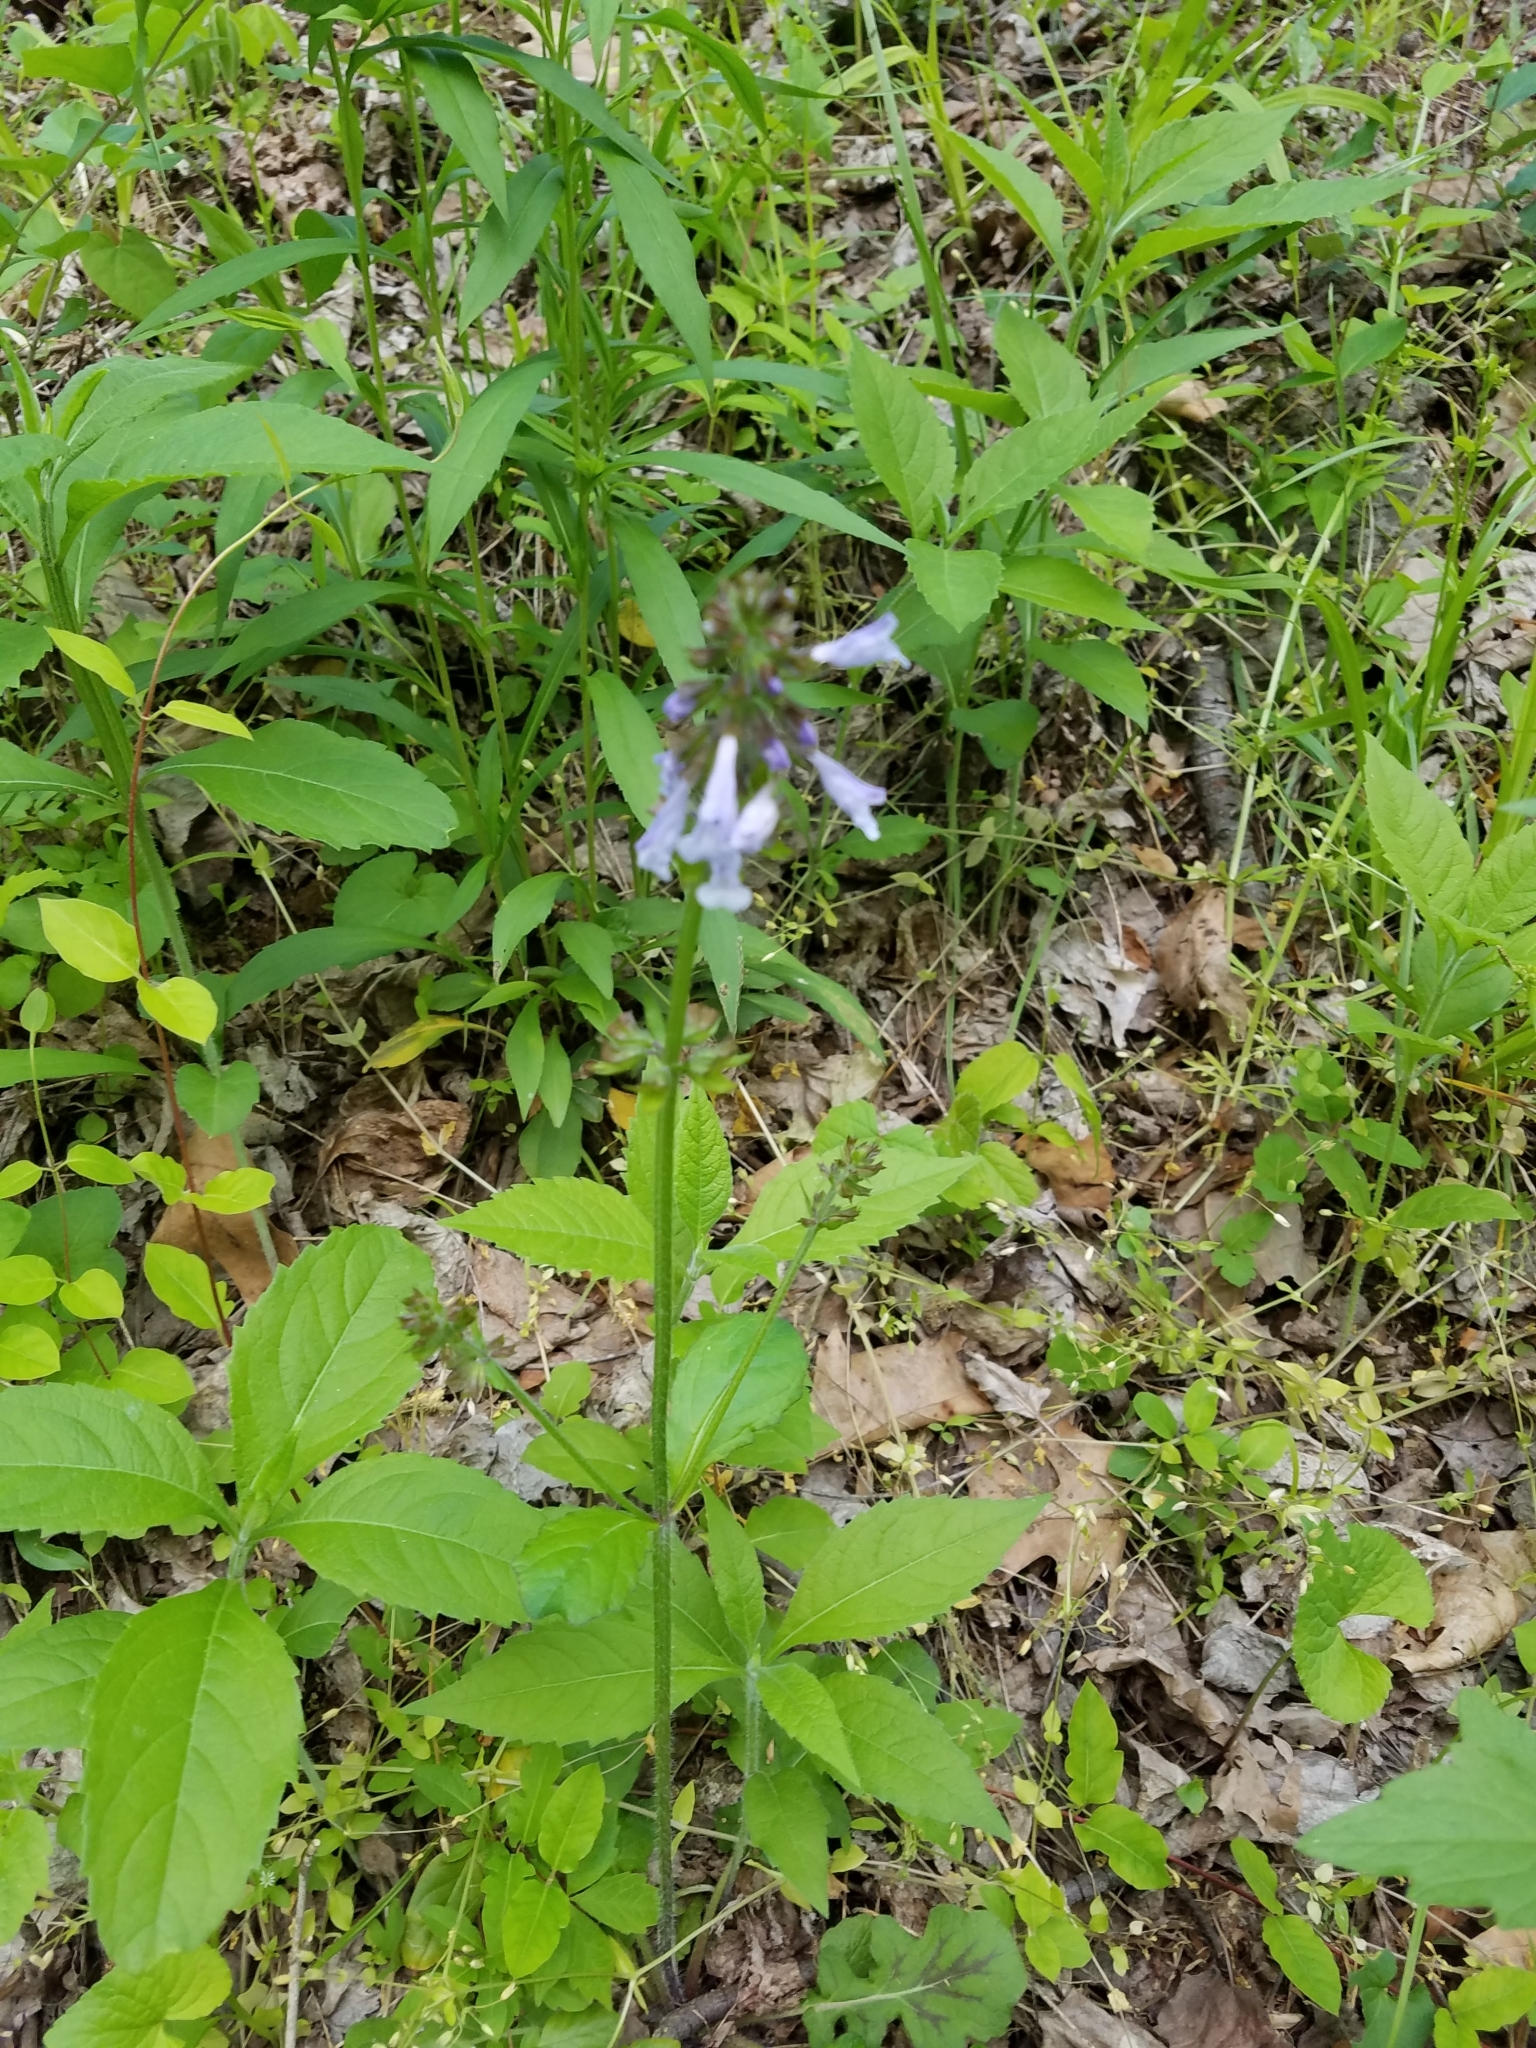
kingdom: Plantae
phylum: Tracheophyta
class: Magnoliopsida
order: Lamiales
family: Lamiaceae
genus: Salvia
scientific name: Salvia lyrata
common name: Cancerweed
